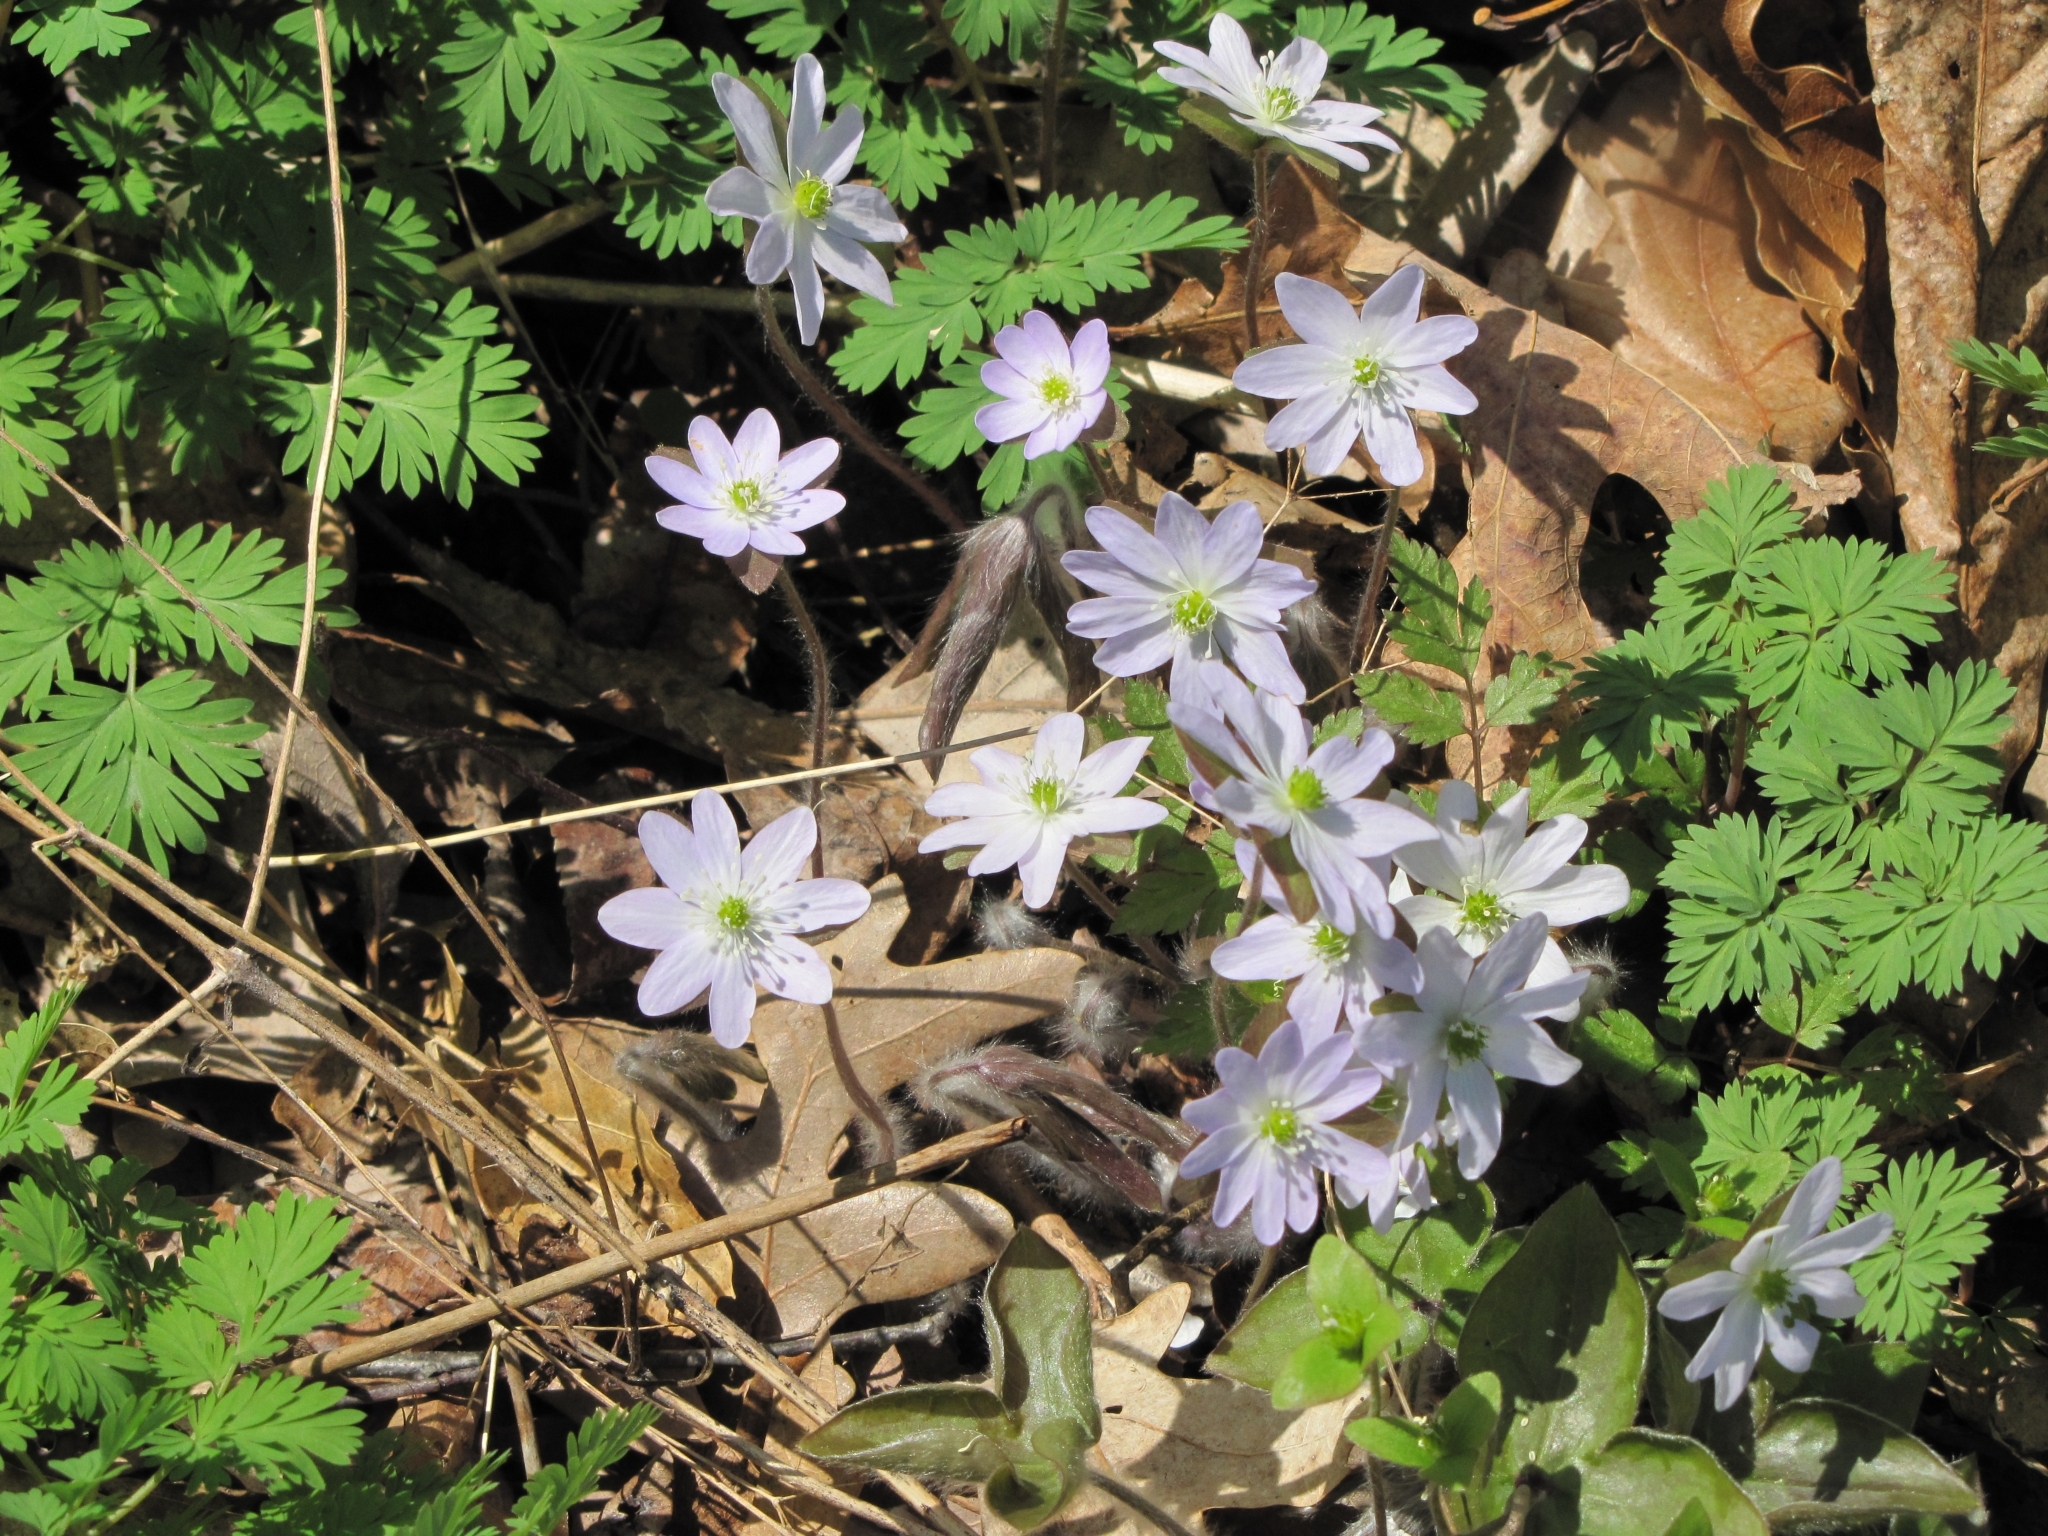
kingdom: Plantae
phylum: Tracheophyta
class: Magnoliopsida
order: Ranunculales
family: Ranunculaceae
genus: Hepatica
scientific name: Hepatica acutiloba
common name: Sharp-lobed hepatica
